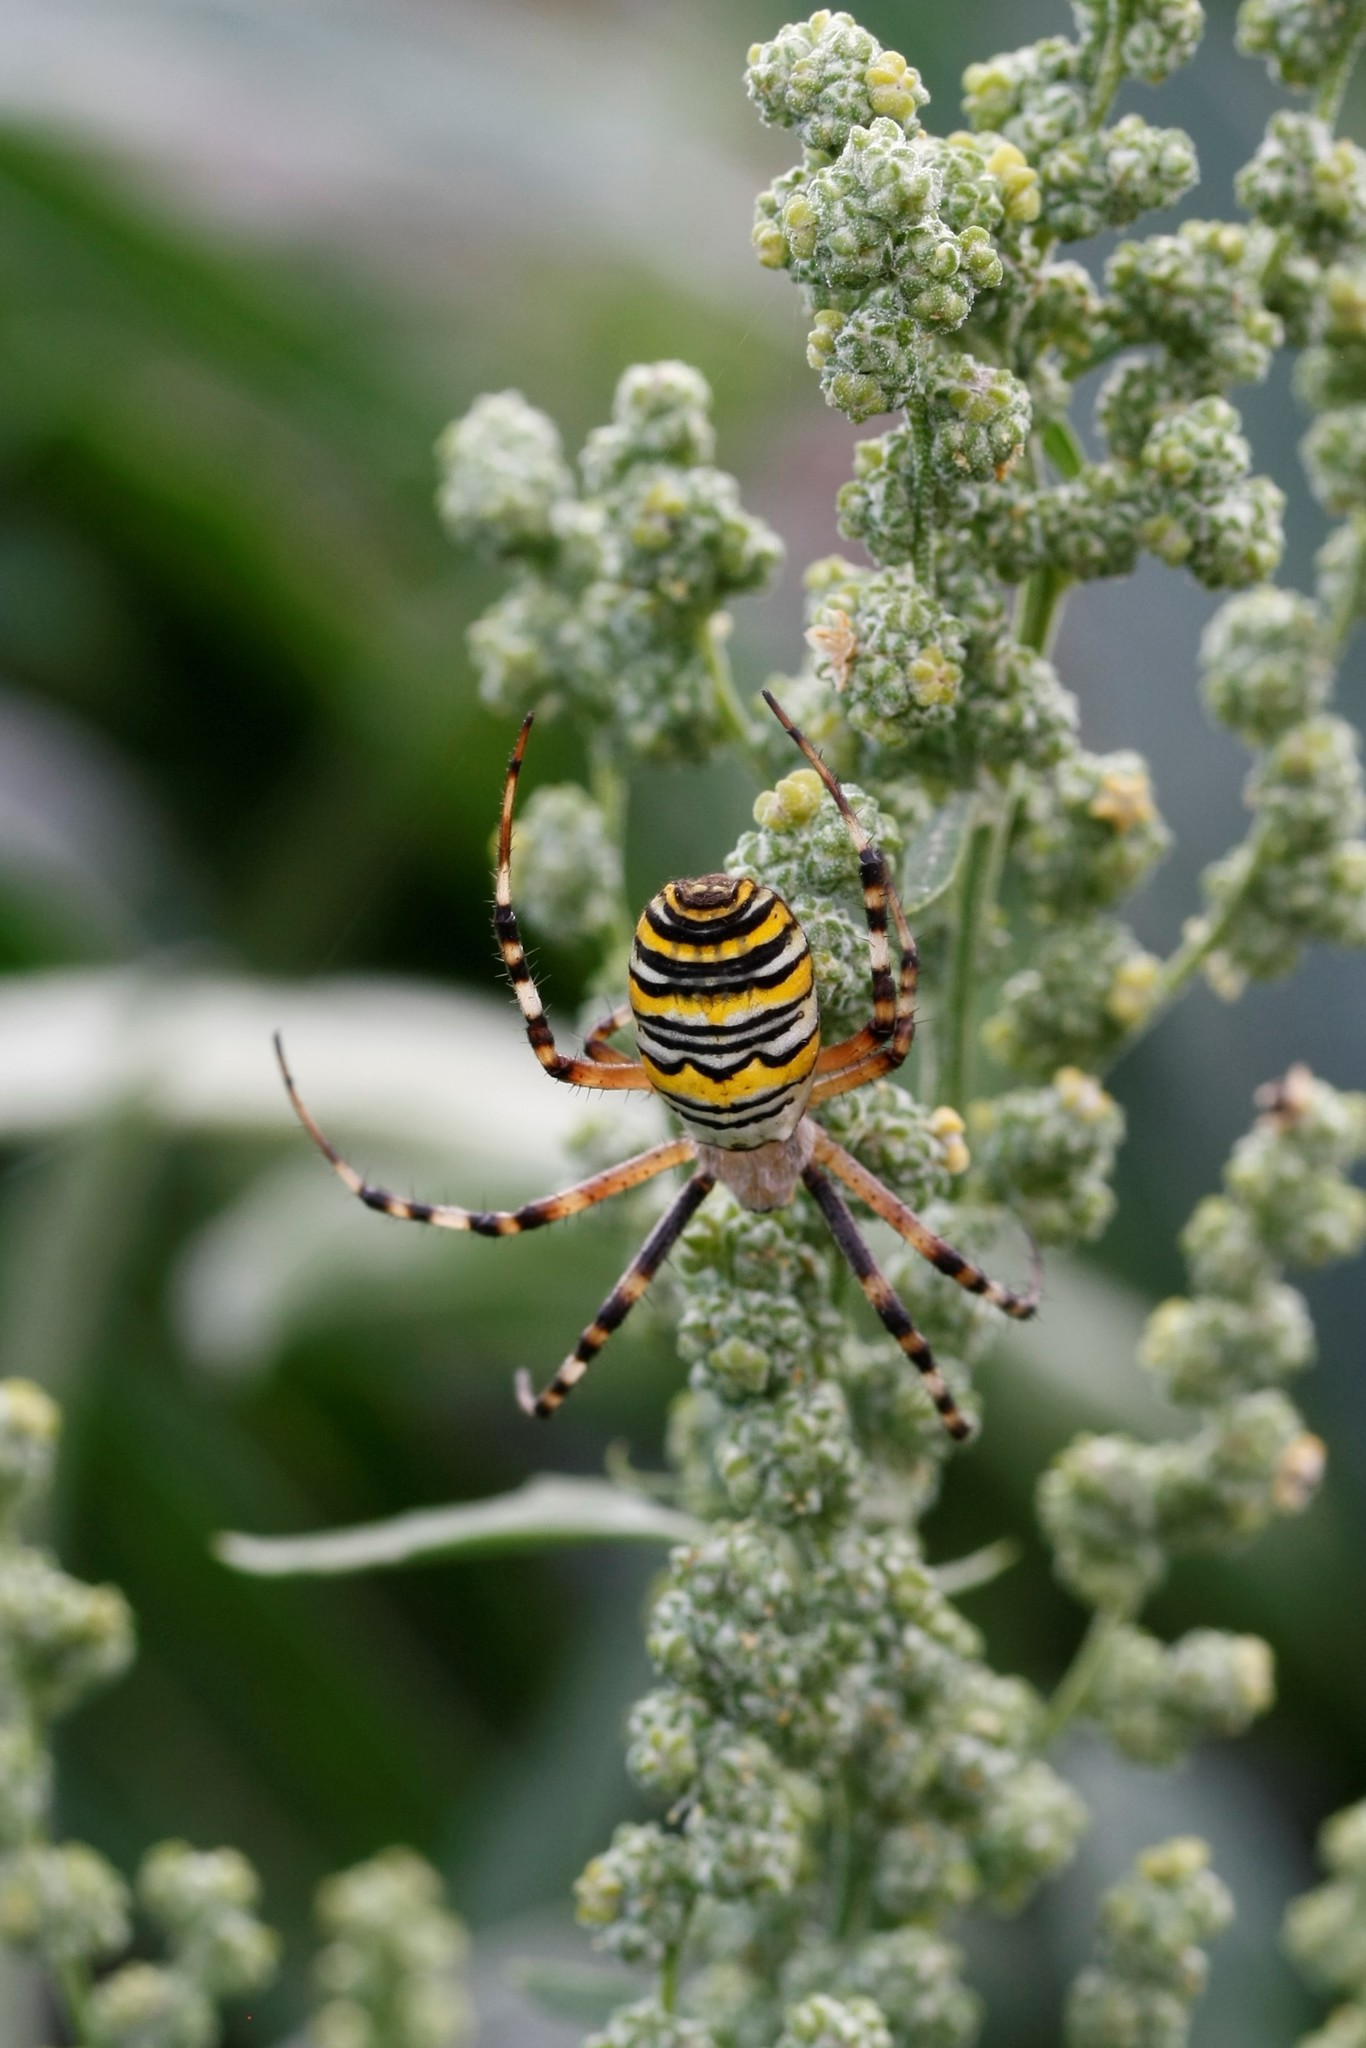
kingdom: Animalia
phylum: Arthropoda
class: Arachnida
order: Araneae
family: Araneidae
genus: Argiope
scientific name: Argiope bruennichi
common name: Wasp spider
